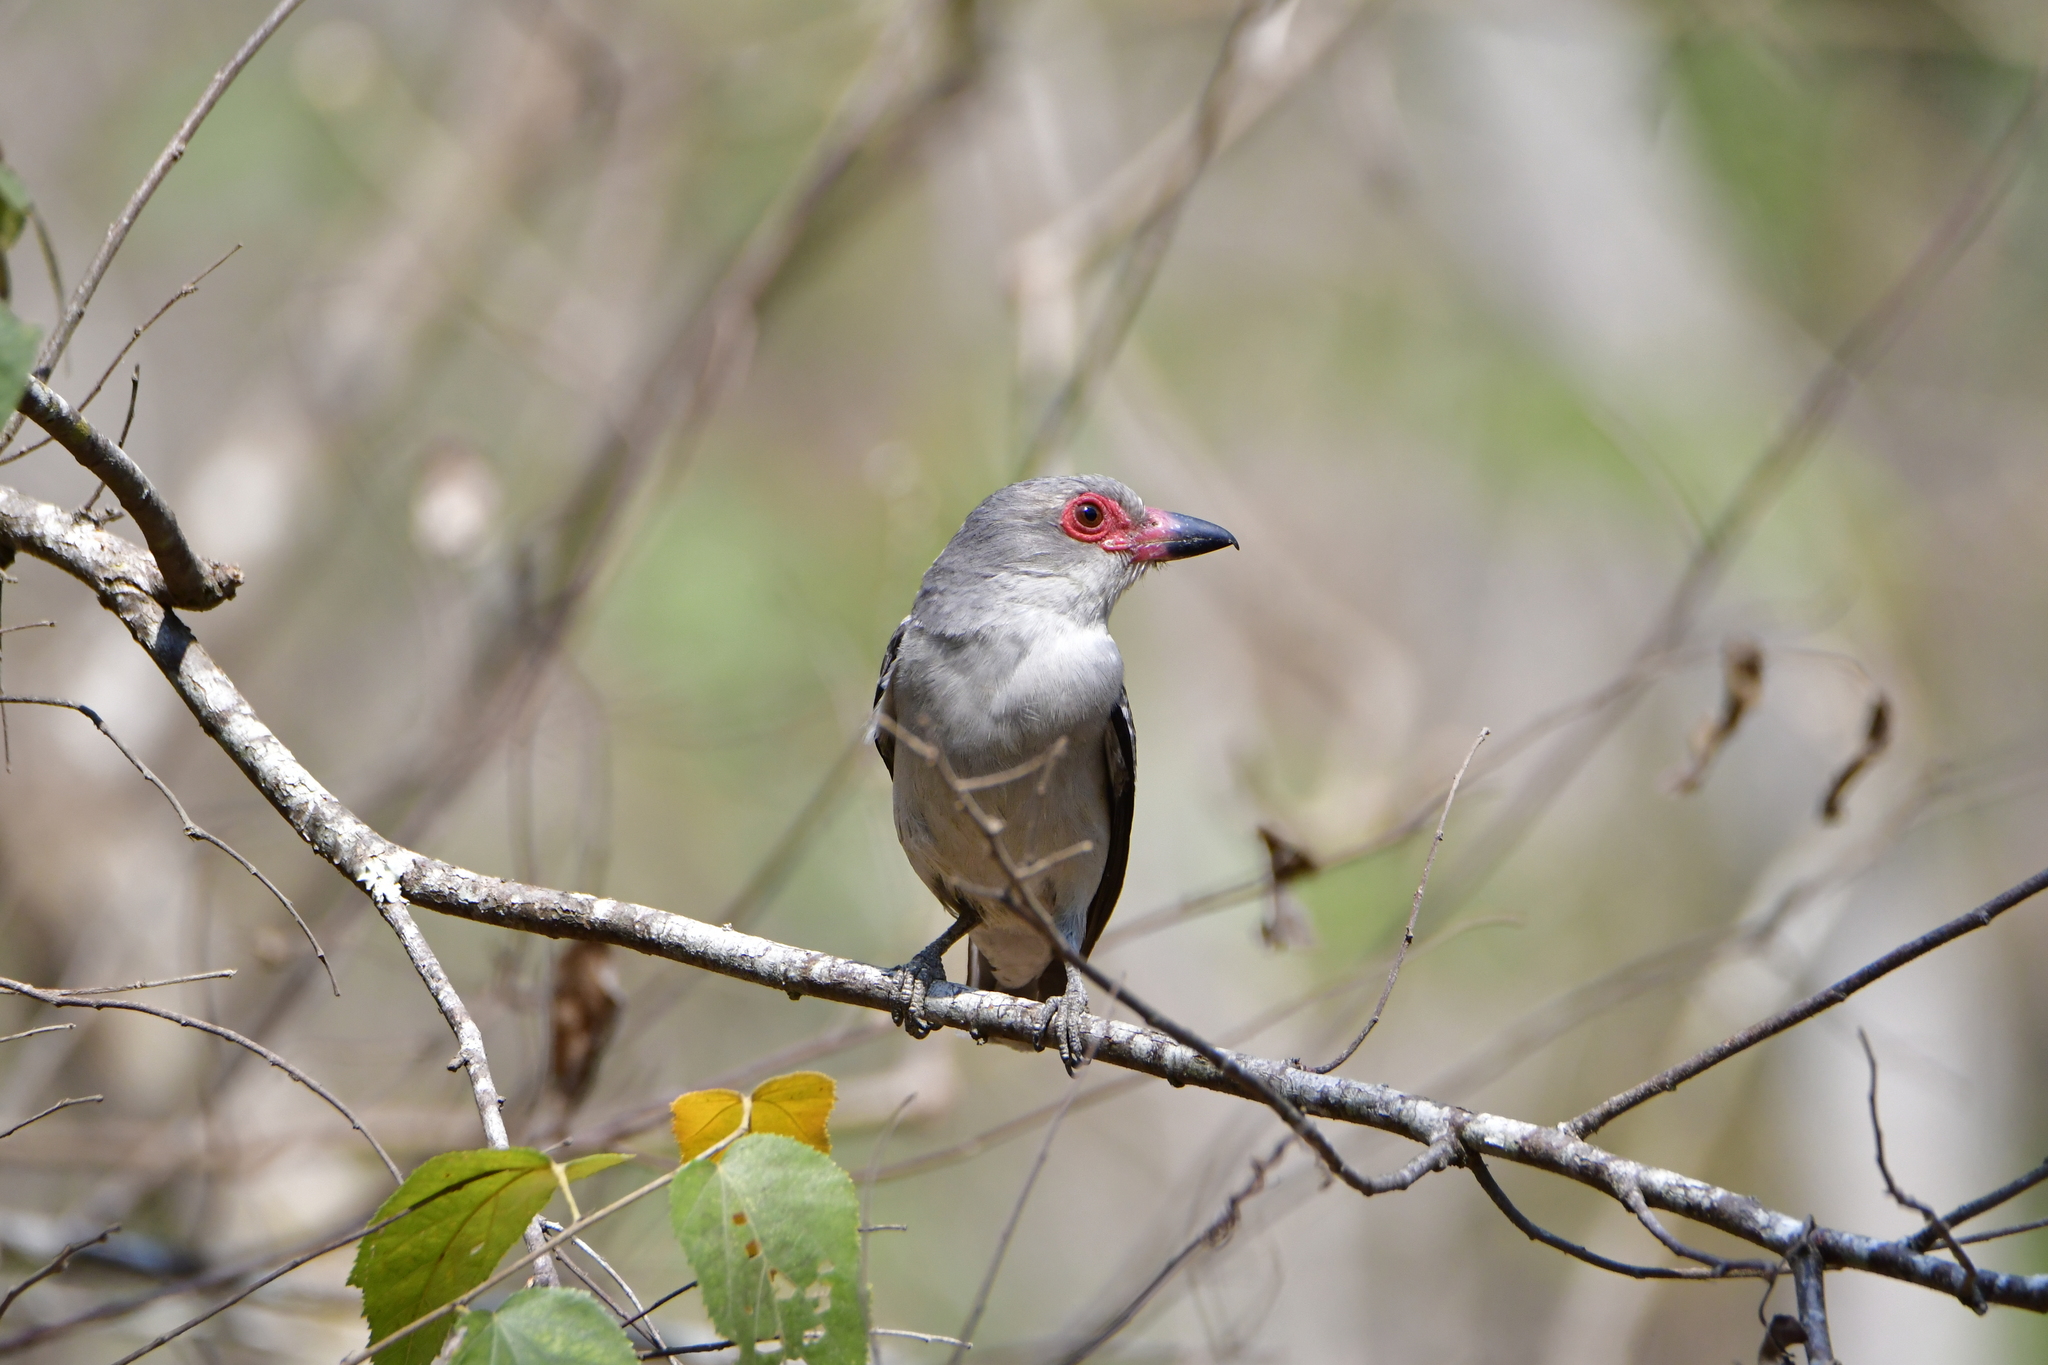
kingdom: Animalia
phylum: Chordata
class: Aves
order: Passeriformes
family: Cotingidae
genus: Tityra
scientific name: Tityra semifasciata
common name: Masked tityra
